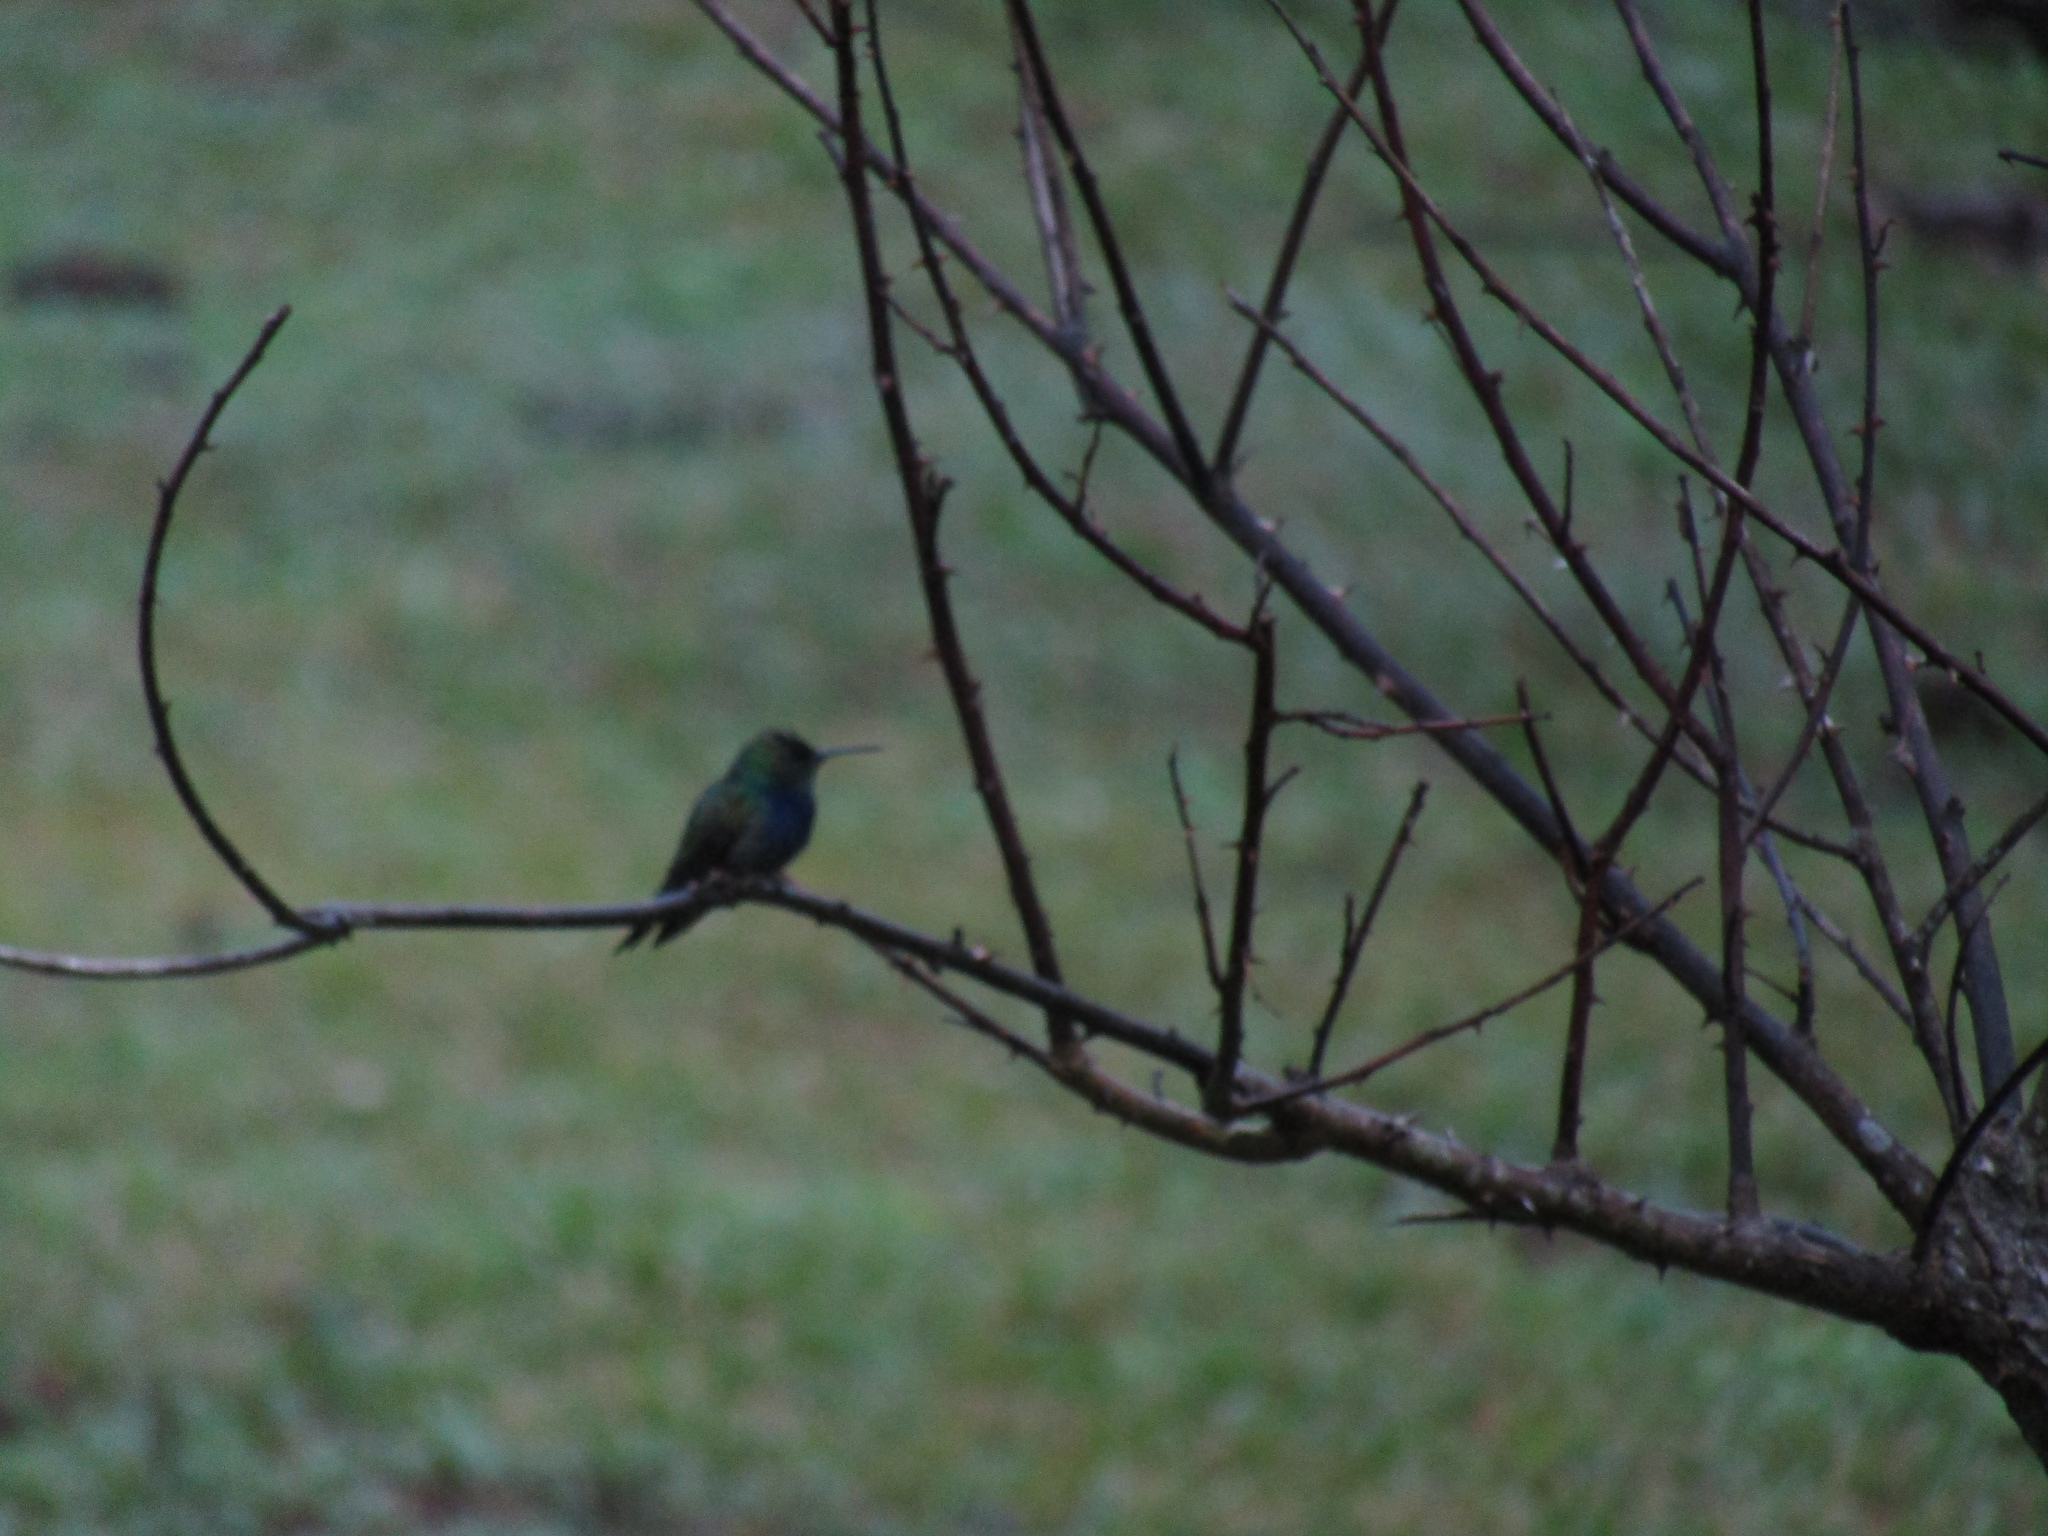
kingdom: Animalia
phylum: Chordata
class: Aves
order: Apodiformes
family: Trochilidae
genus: Thalurania
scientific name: Thalurania furcata
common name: Fork-tailed woodnymph
